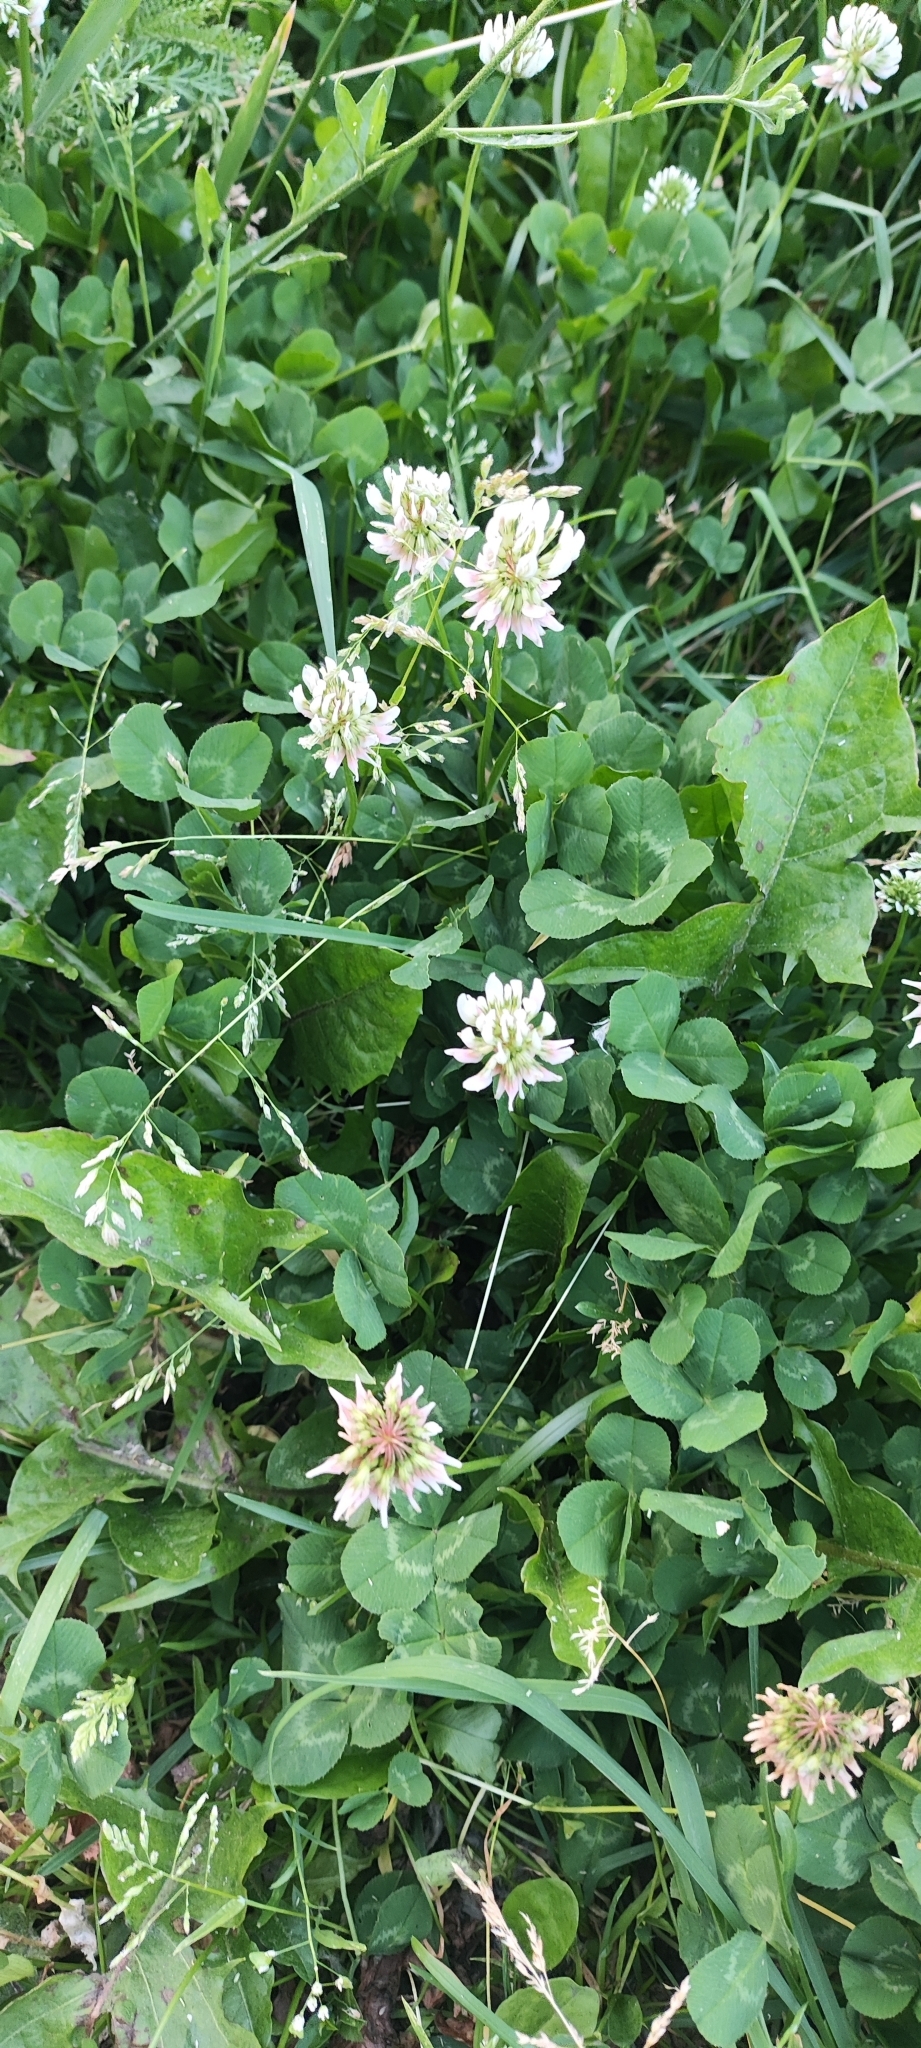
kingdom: Plantae
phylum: Tracheophyta
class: Magnoliopsida
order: Fabales
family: Fabaceae
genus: Trifolium
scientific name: Trifolium repens
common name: White clover
